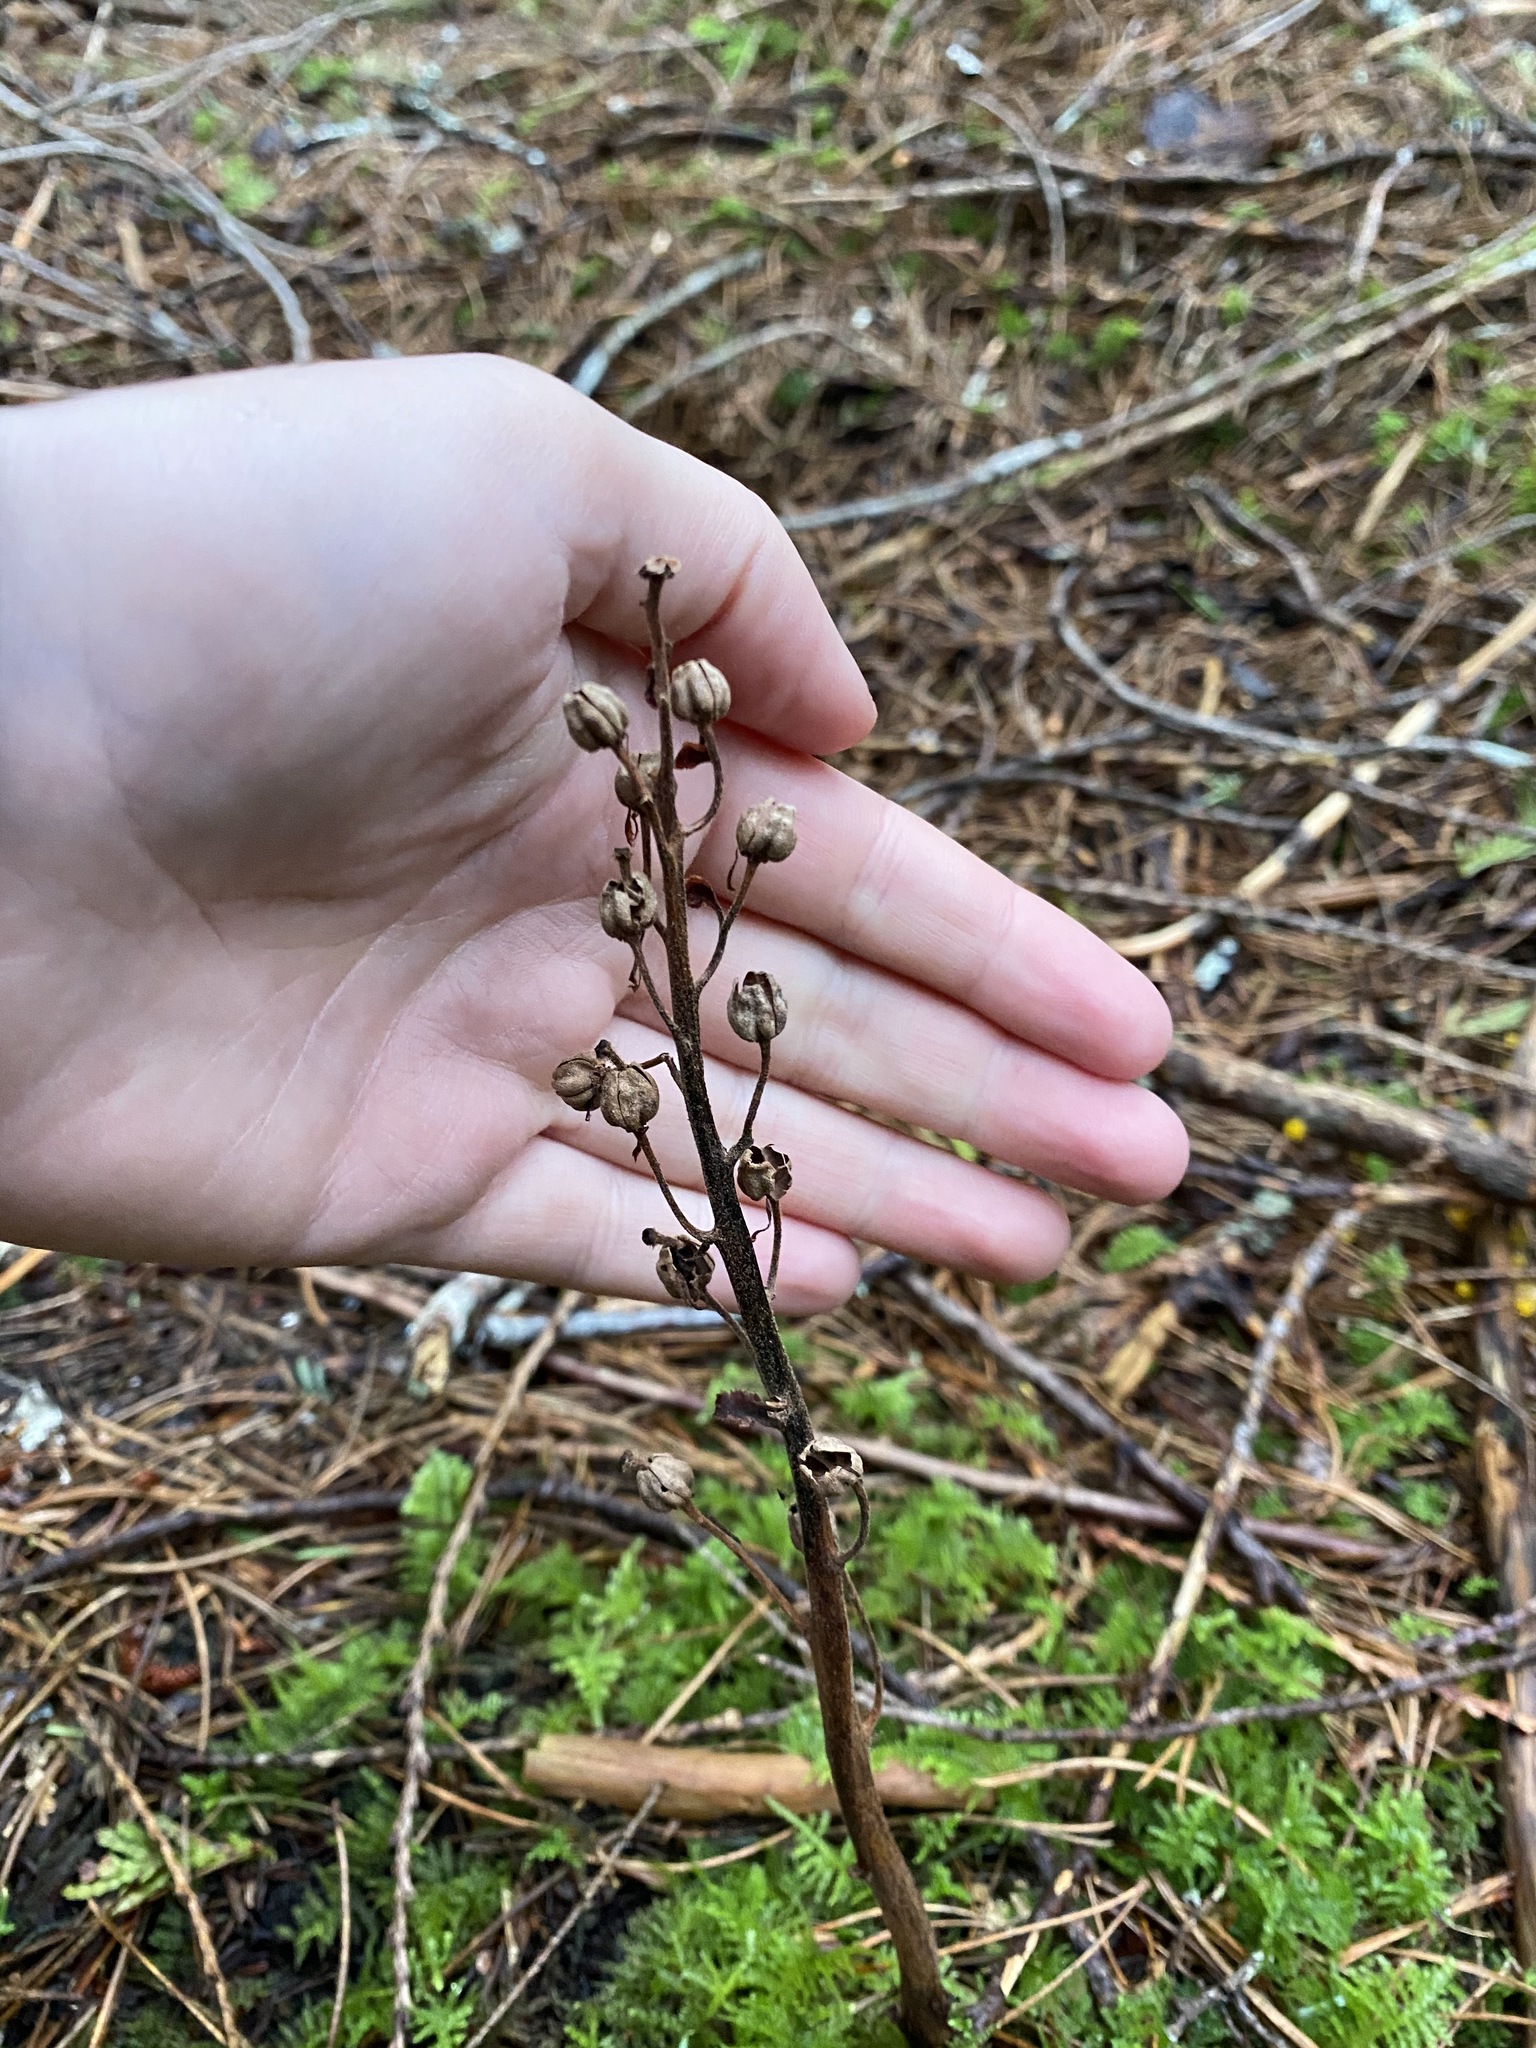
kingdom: Plantae
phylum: Tracheophyta
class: Magnoliopsida
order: Ericales
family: Ericaceae
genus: Hypopitys
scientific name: Hypopitys monotropa
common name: Yellow bird's-nest
